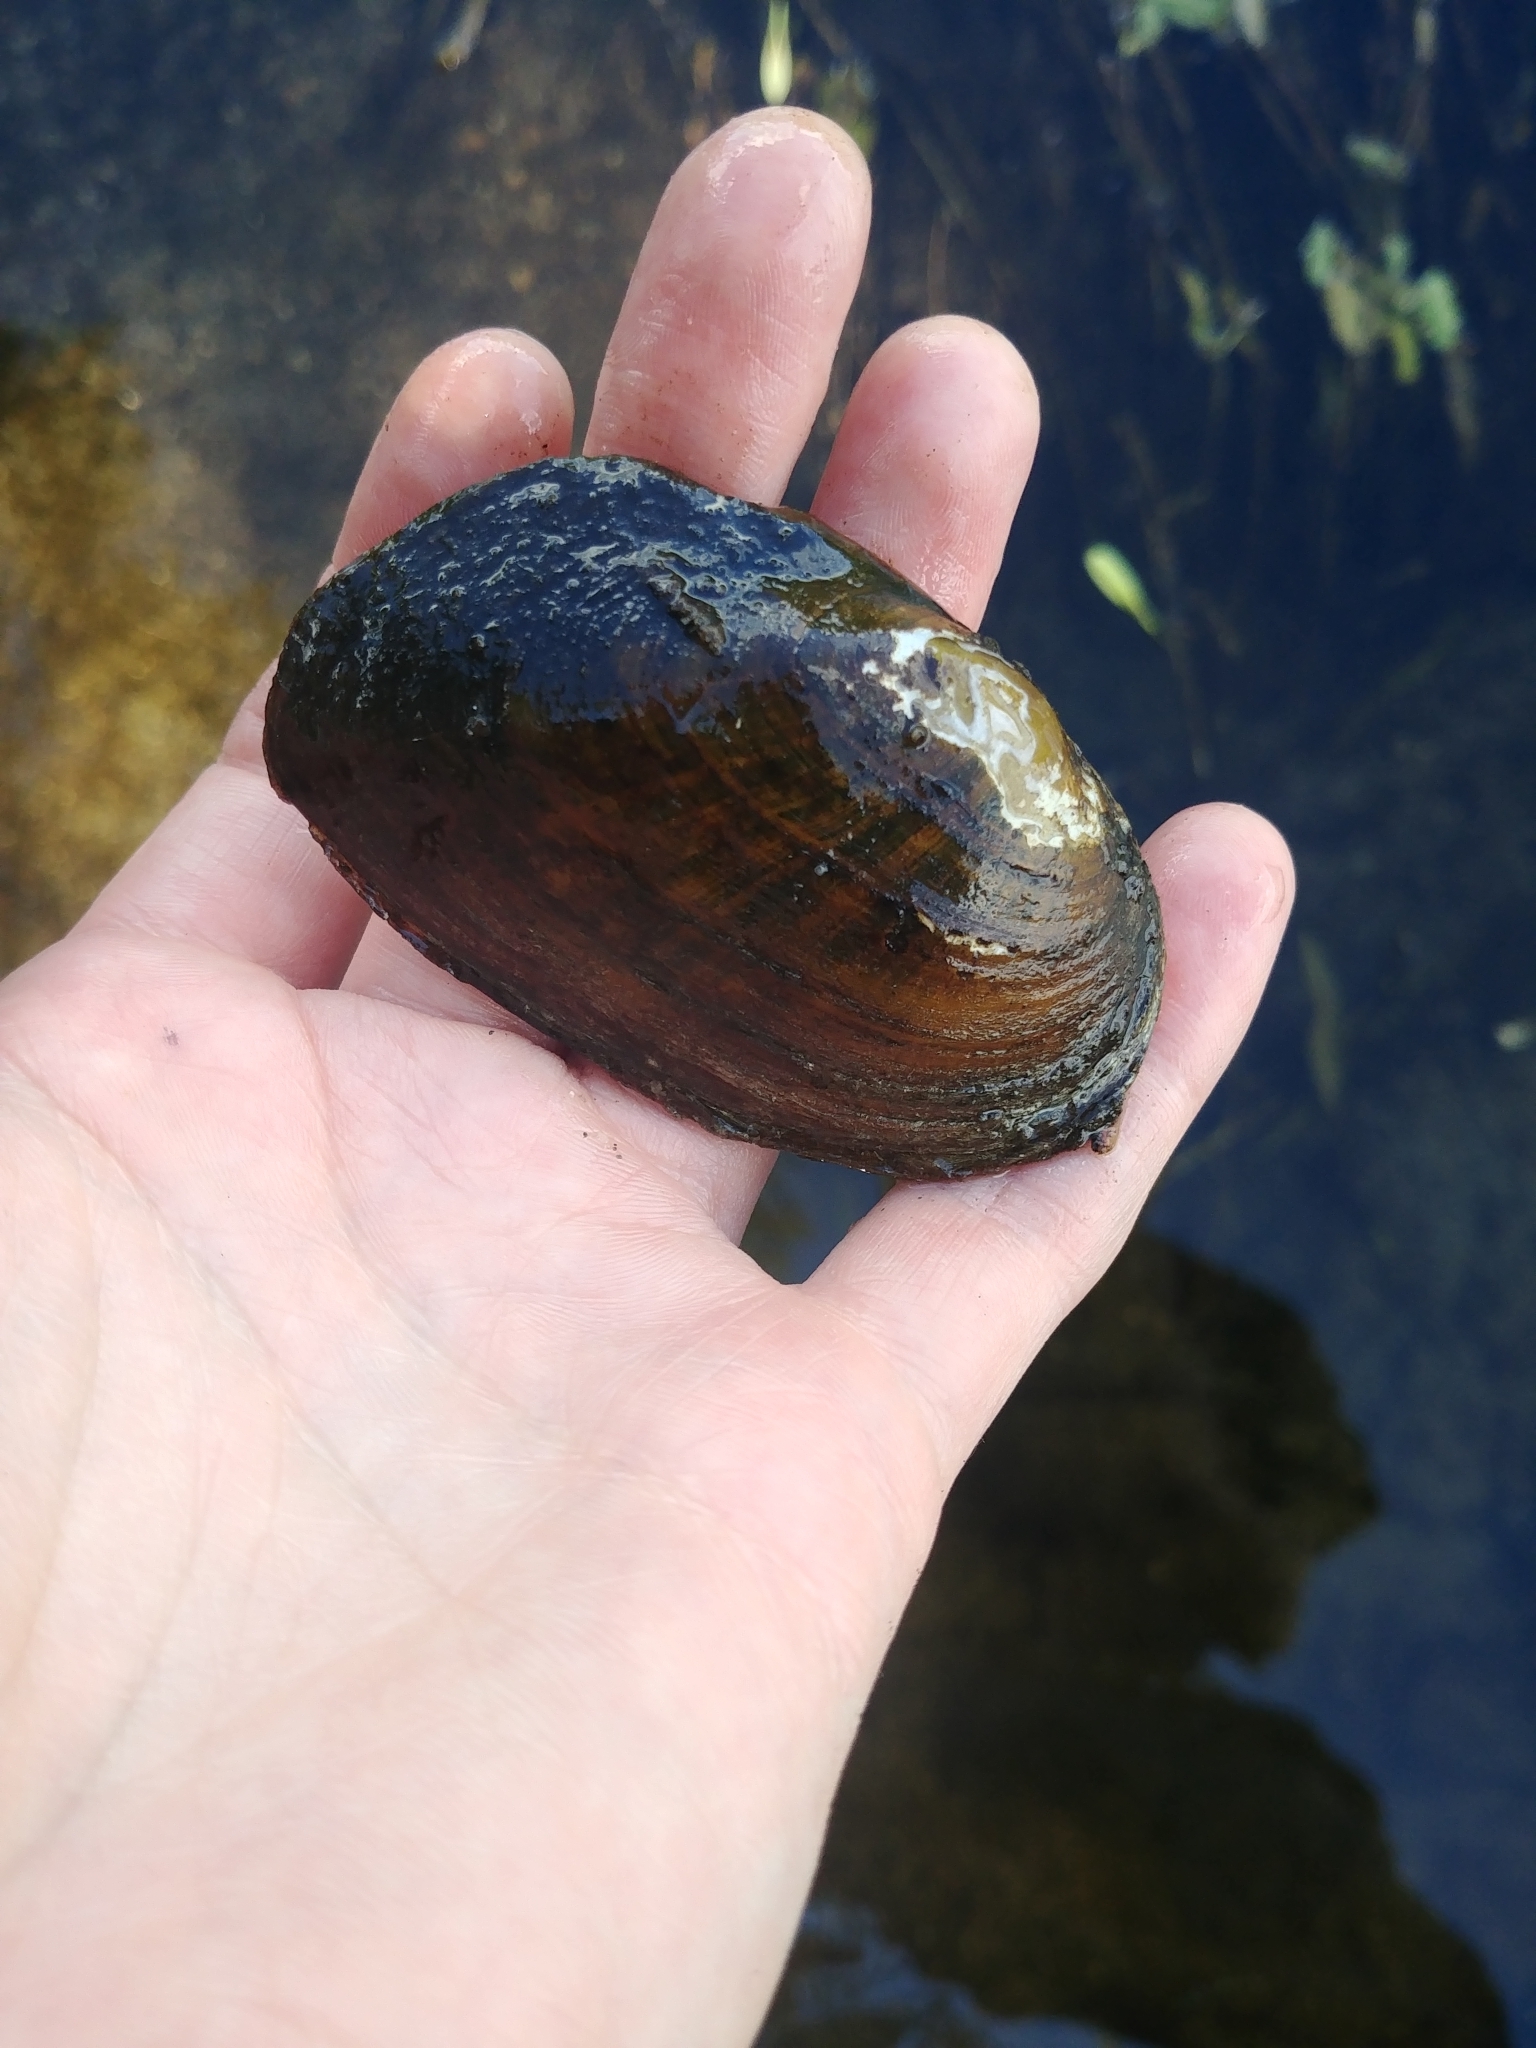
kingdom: Animalia
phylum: Mollusca
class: Bivalvia
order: Unionida
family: Unionidae
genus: Elliptio
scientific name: Elliptio complanata
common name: Eastern elliptio
